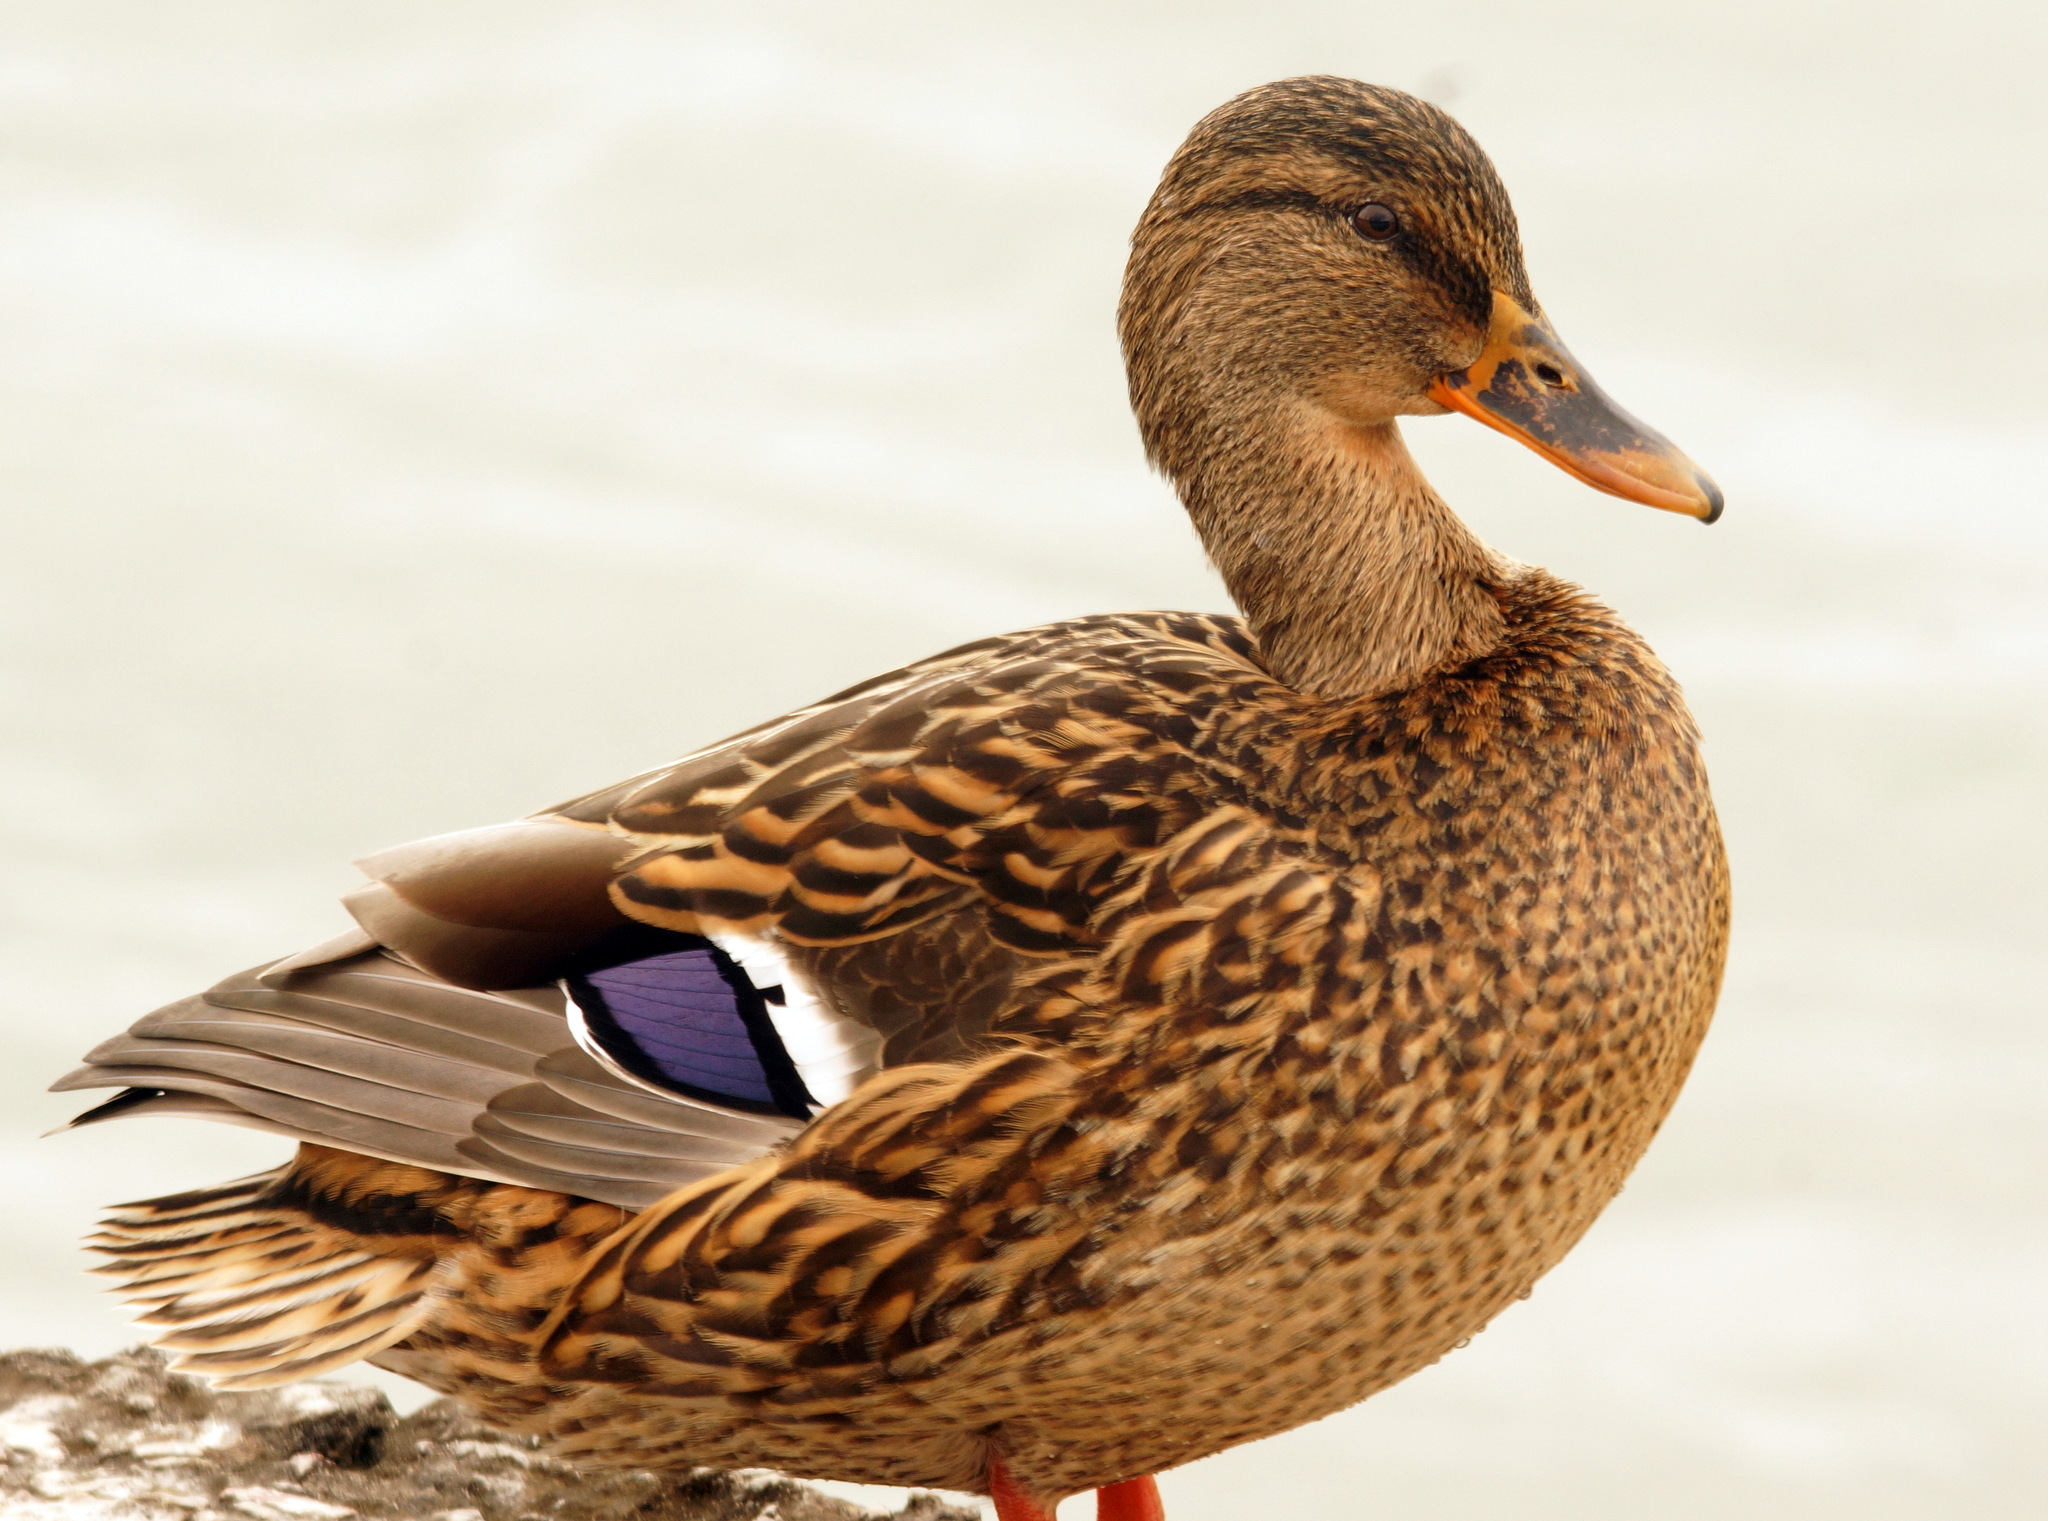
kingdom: Animalia
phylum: Chordata
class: Aves
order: Anseriformes
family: Anatidae
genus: Anas
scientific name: Anas platyrhynchos
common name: Mallard
